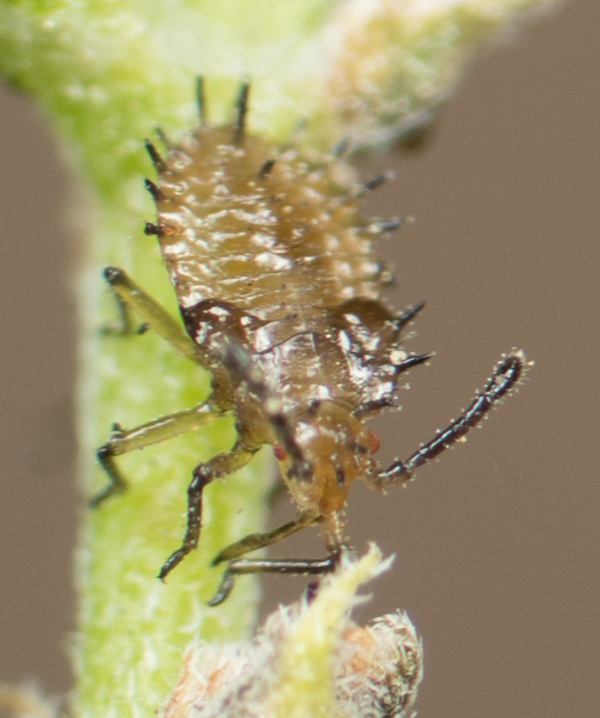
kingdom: Animalia
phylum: Arthropoda
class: Insecta
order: Hemiptera
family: Tingidae
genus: Teleonemia
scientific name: Teleonemia scrupulosa
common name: Lantana lace bug
